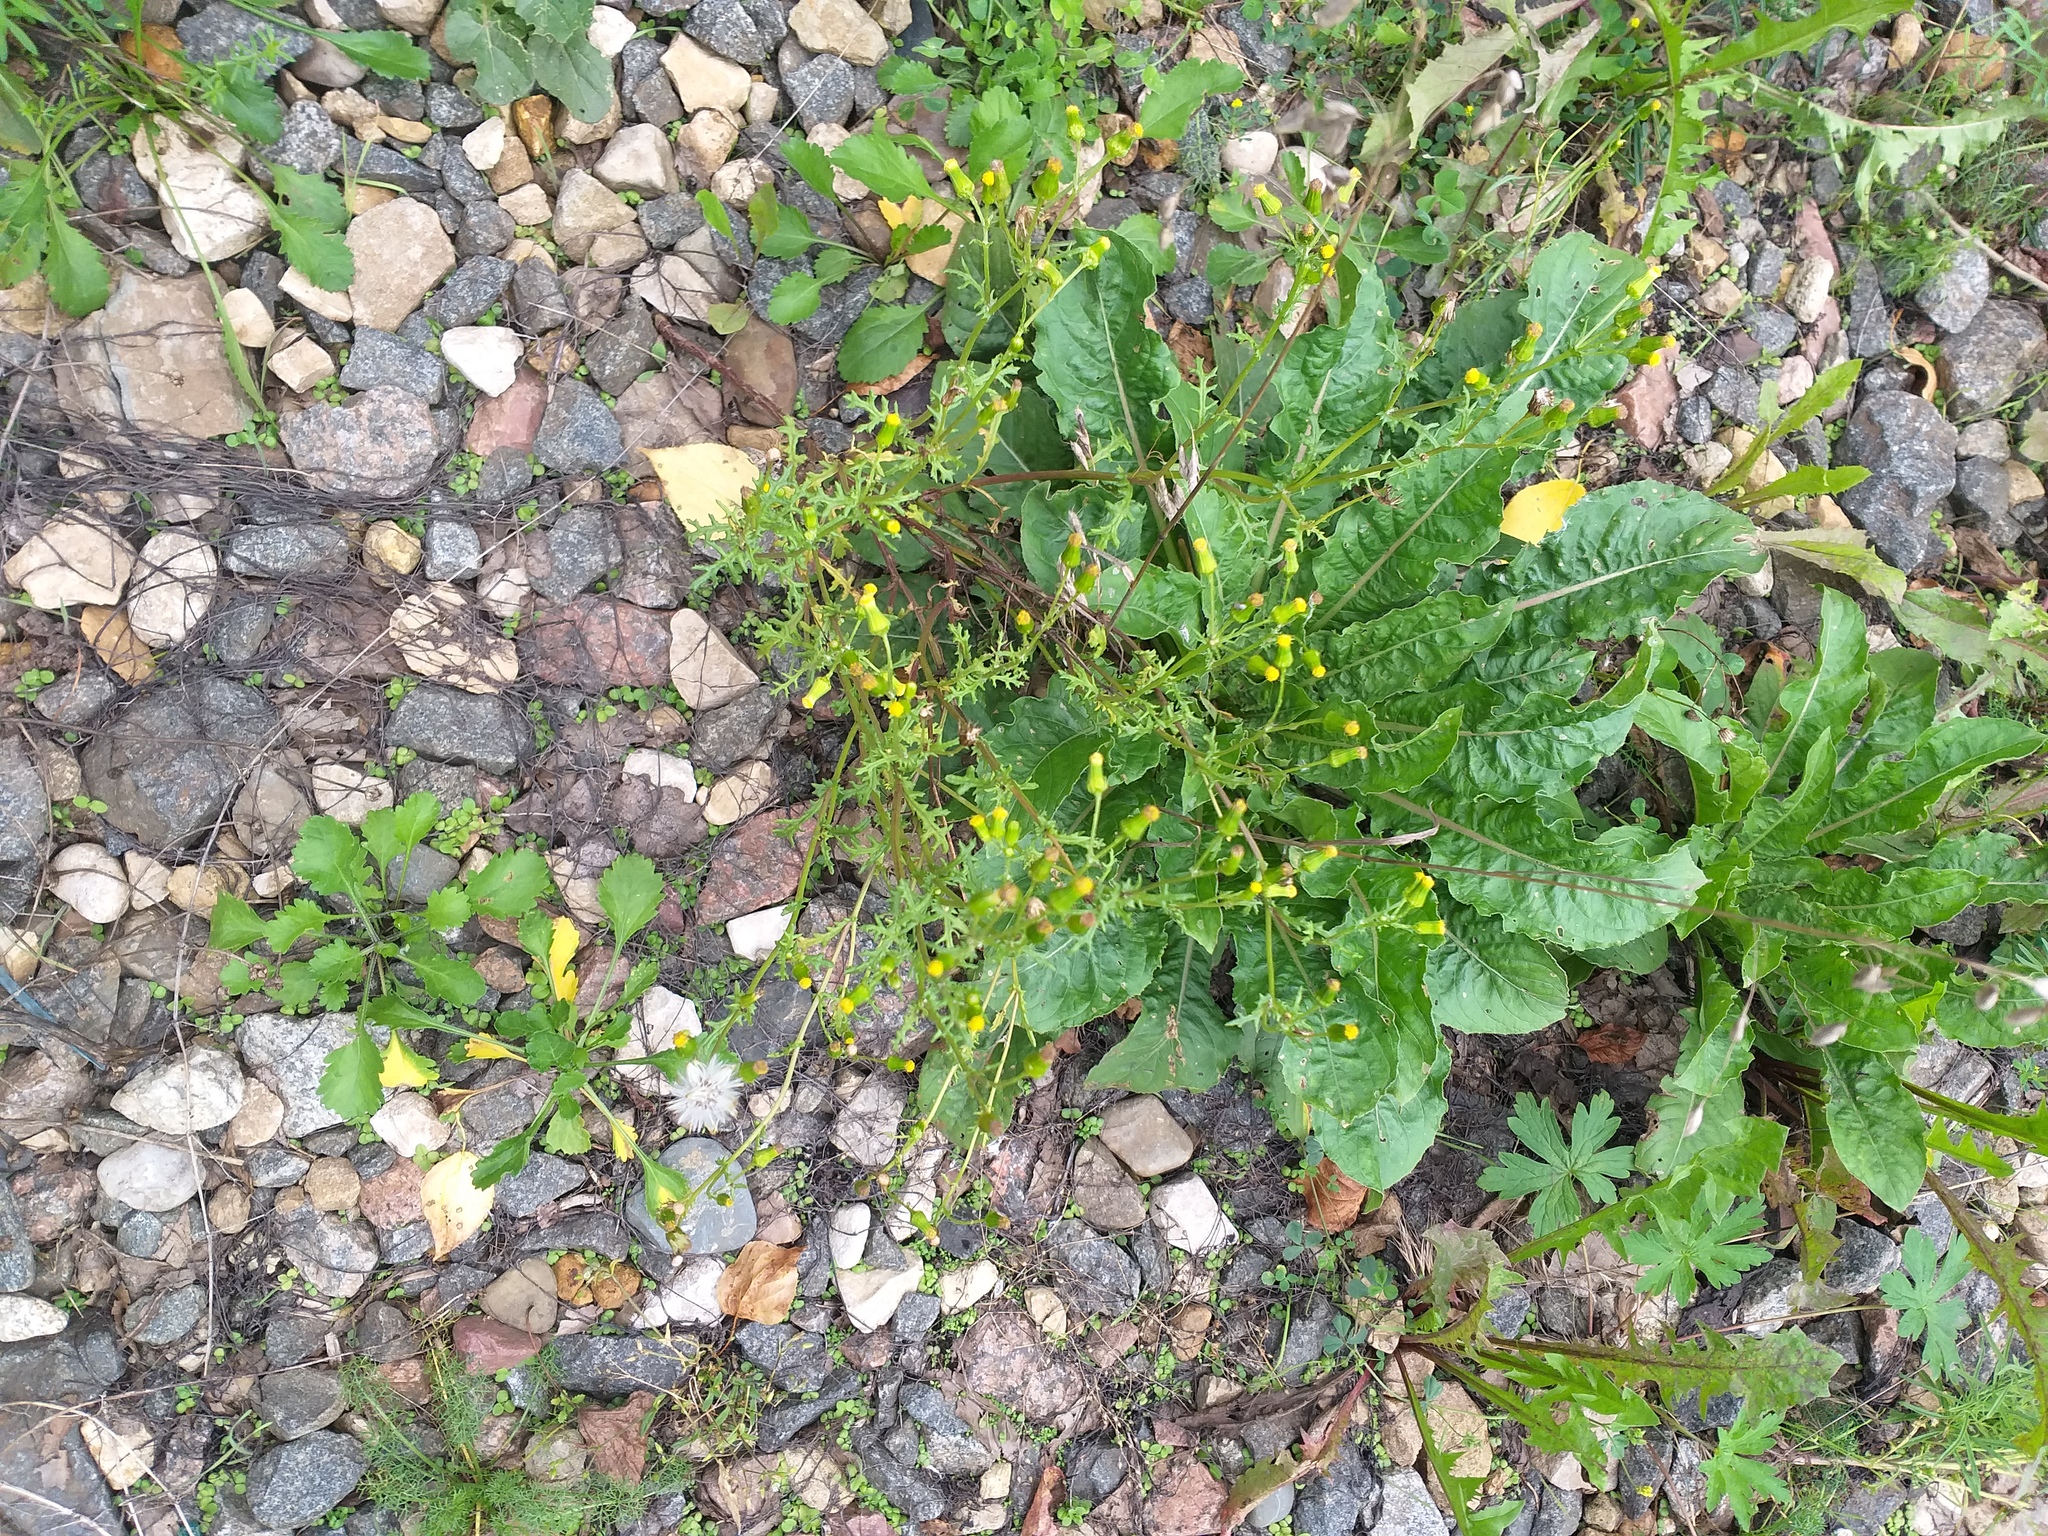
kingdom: Plantae
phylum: Tracheophyta
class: Magnoliopsida
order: Asterales
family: Asteraceae
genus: Senecio
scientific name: Senecio vulgaris
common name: Old-man-in-the-spring
